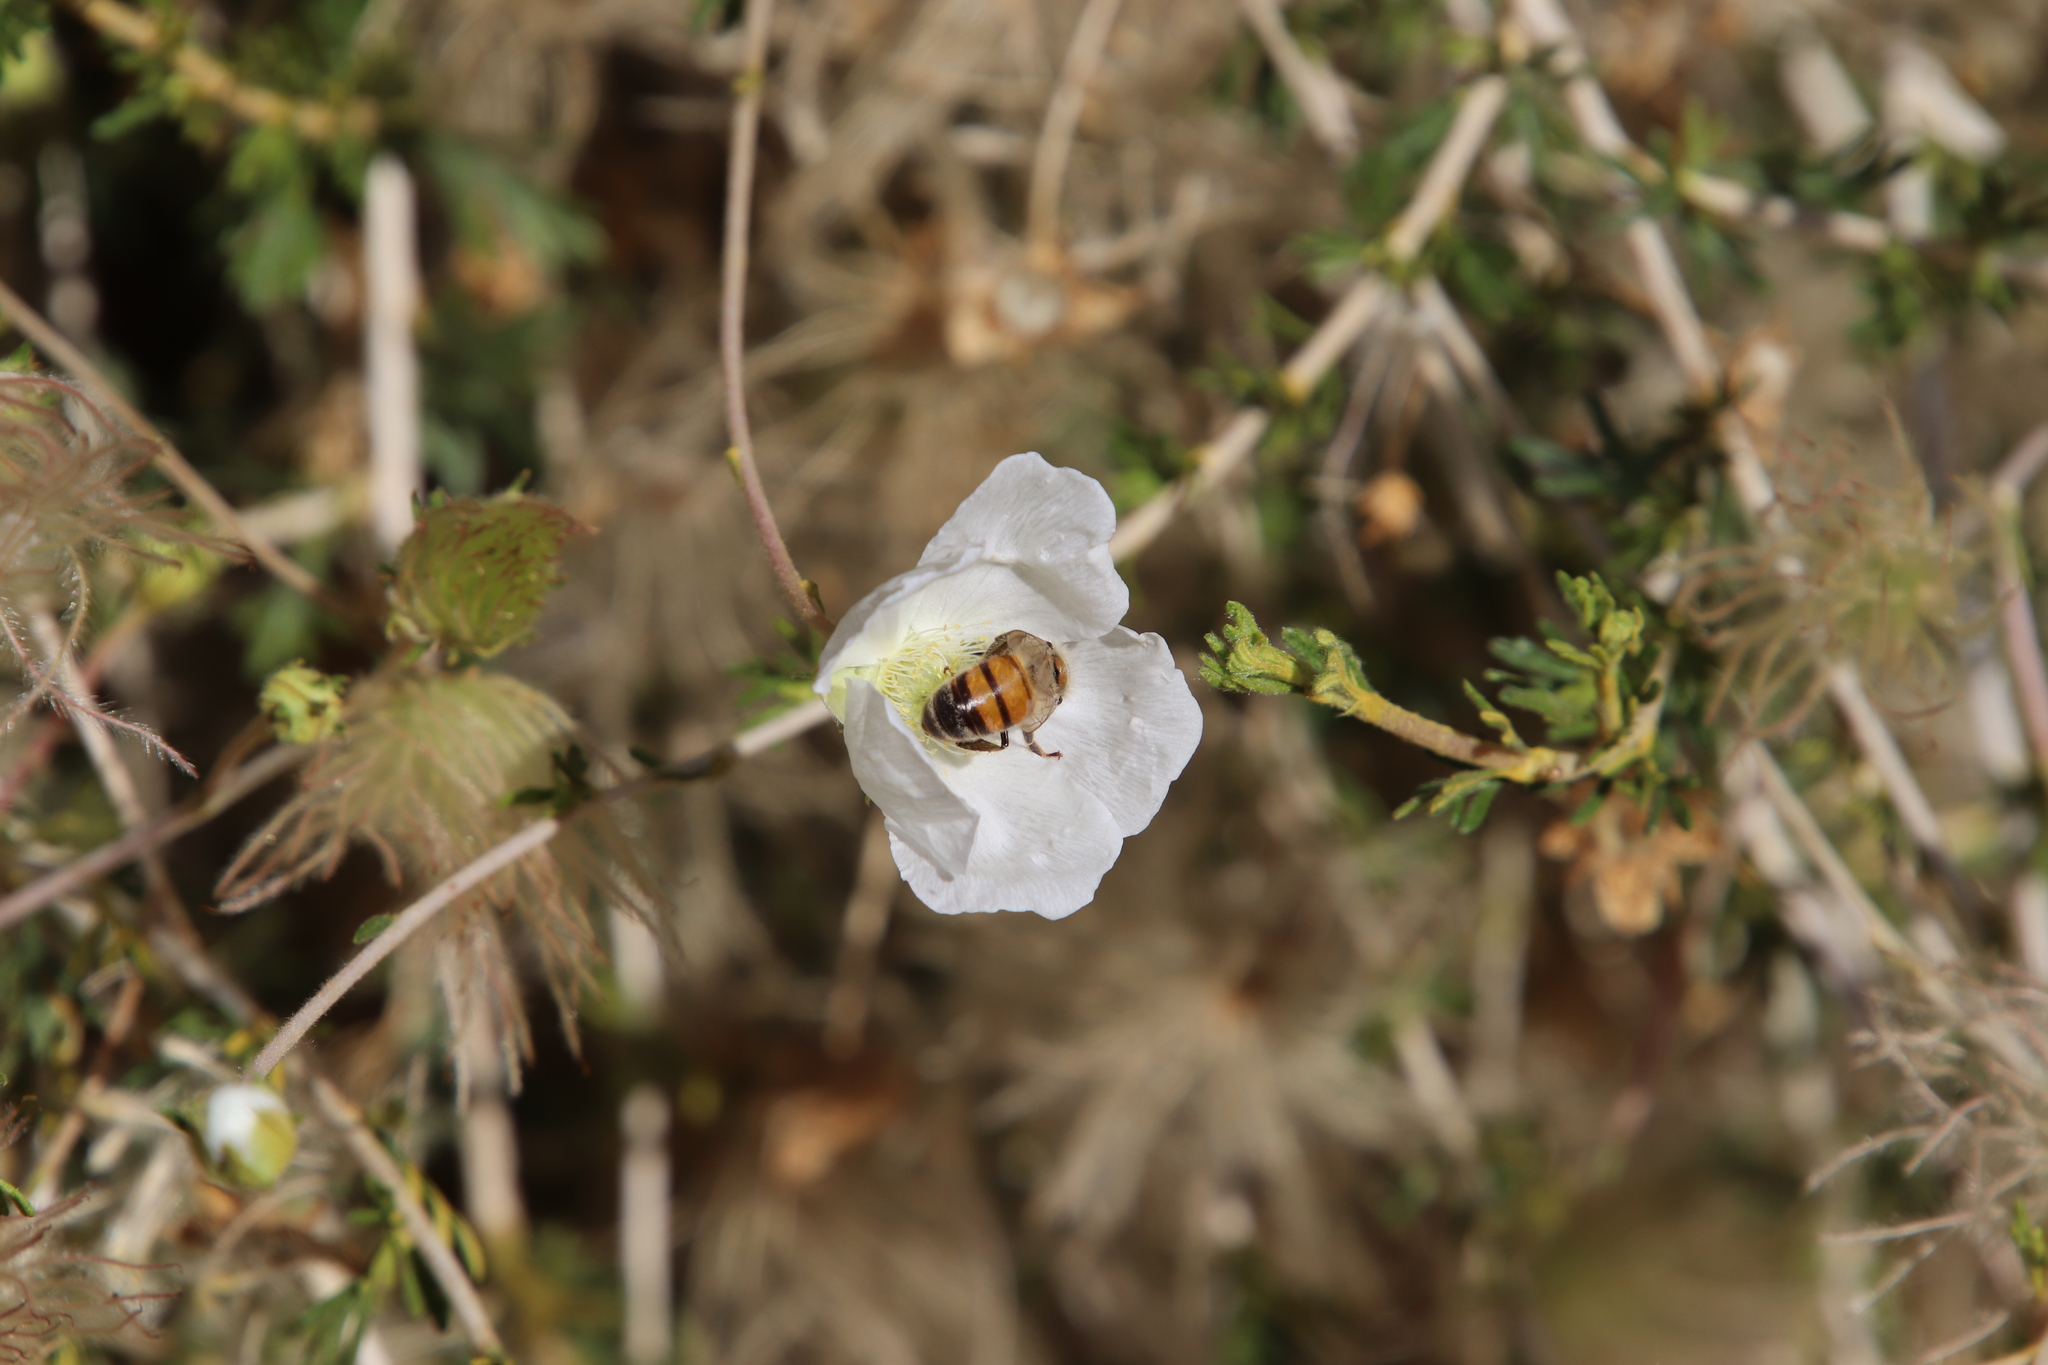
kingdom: Animalia
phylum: Arthropoda
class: Insecta
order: Hymenoptera
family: Apidae
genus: Apis
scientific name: Apis mellifera
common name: Honey bee
